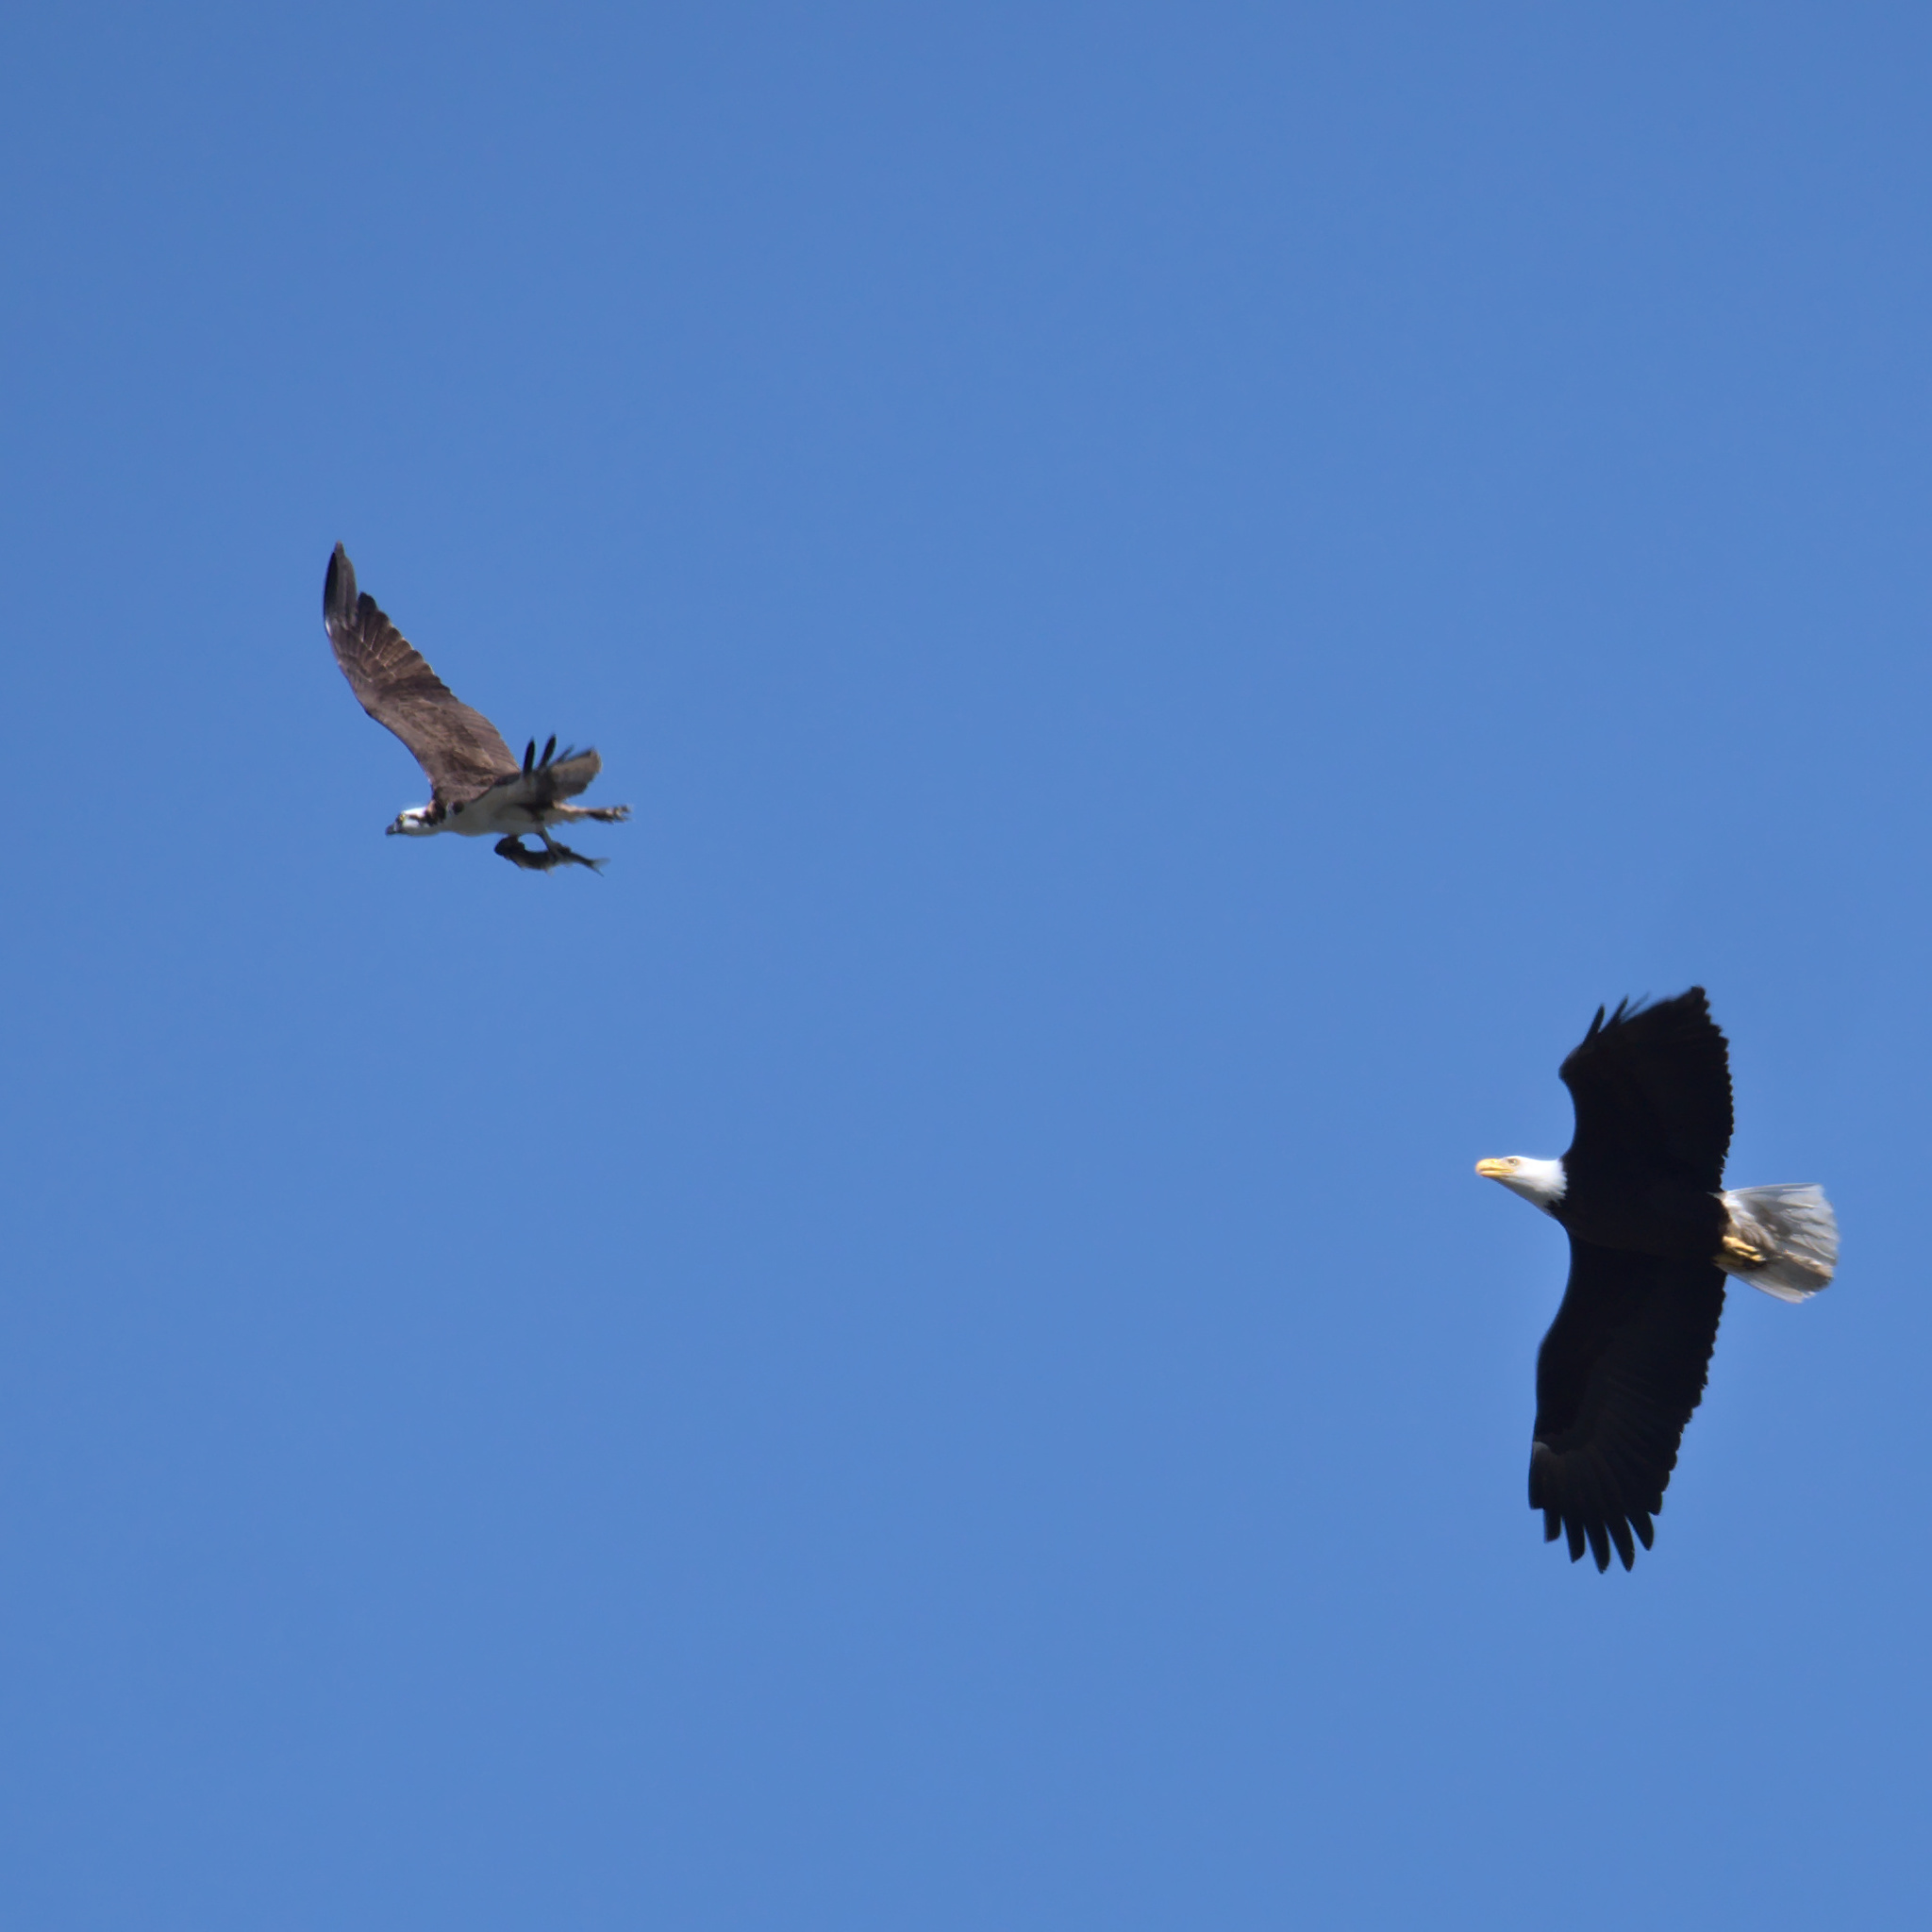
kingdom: Animalia
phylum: Chordata
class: Aves
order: Accipitriformes
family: Accipitridae
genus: Haliaeetus
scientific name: Haliaeetus leucocephalus
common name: Bald eagle
